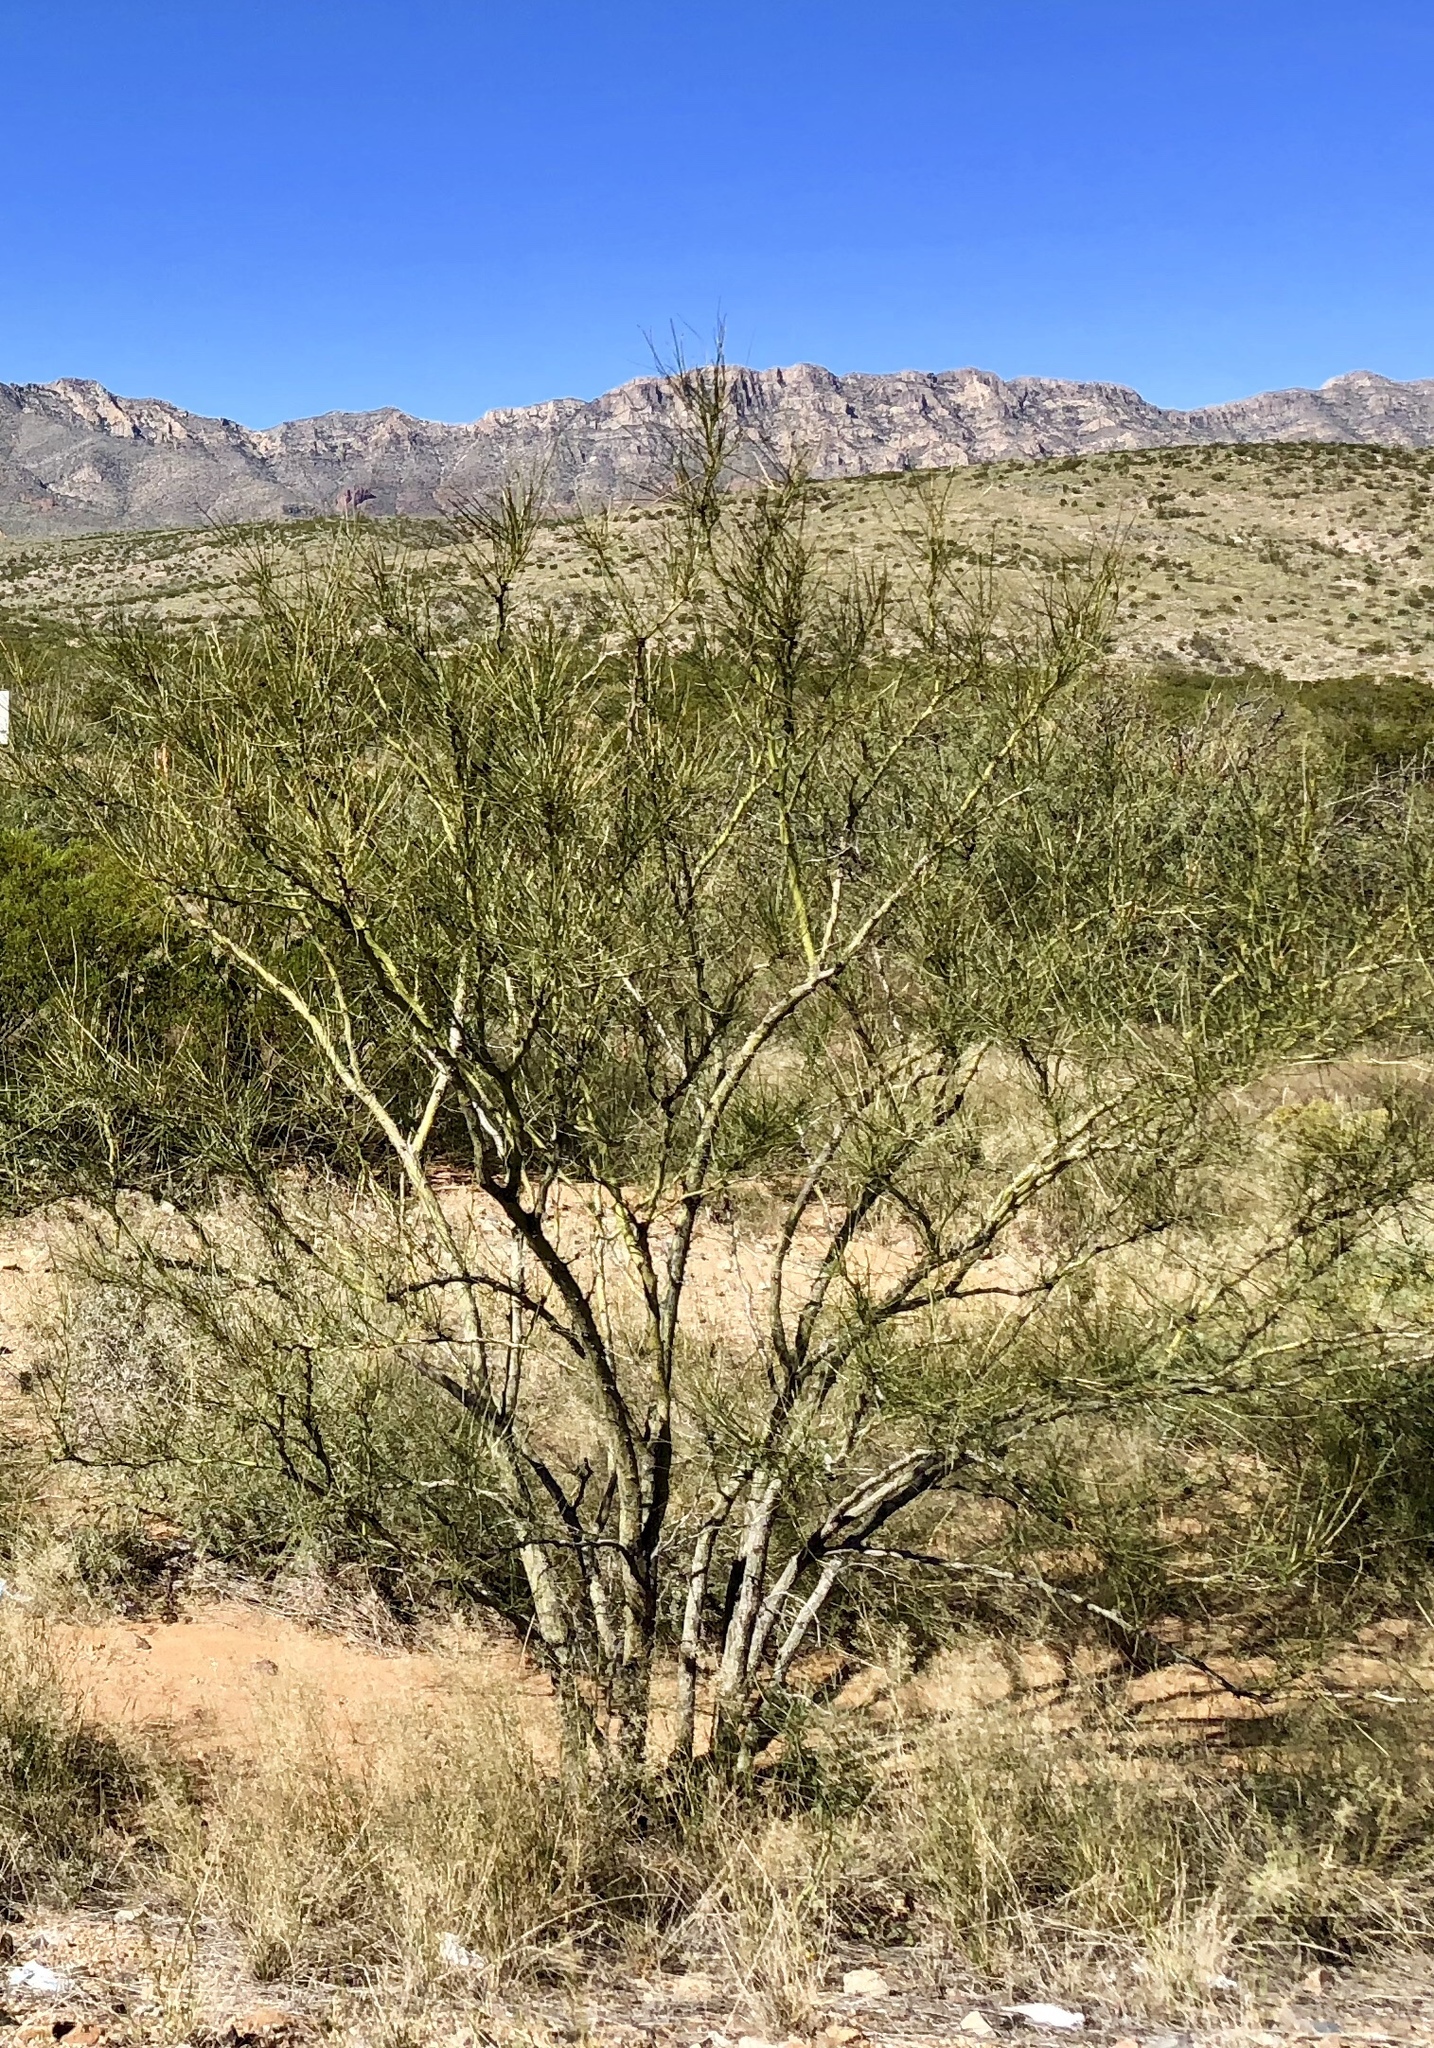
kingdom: Plantae
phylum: Tracheophyta
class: Magnoliopsida
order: Fabales
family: Fabaceae
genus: Parkinsonia
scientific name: Parkinsonia aculeata
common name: Jerusalem thorn
